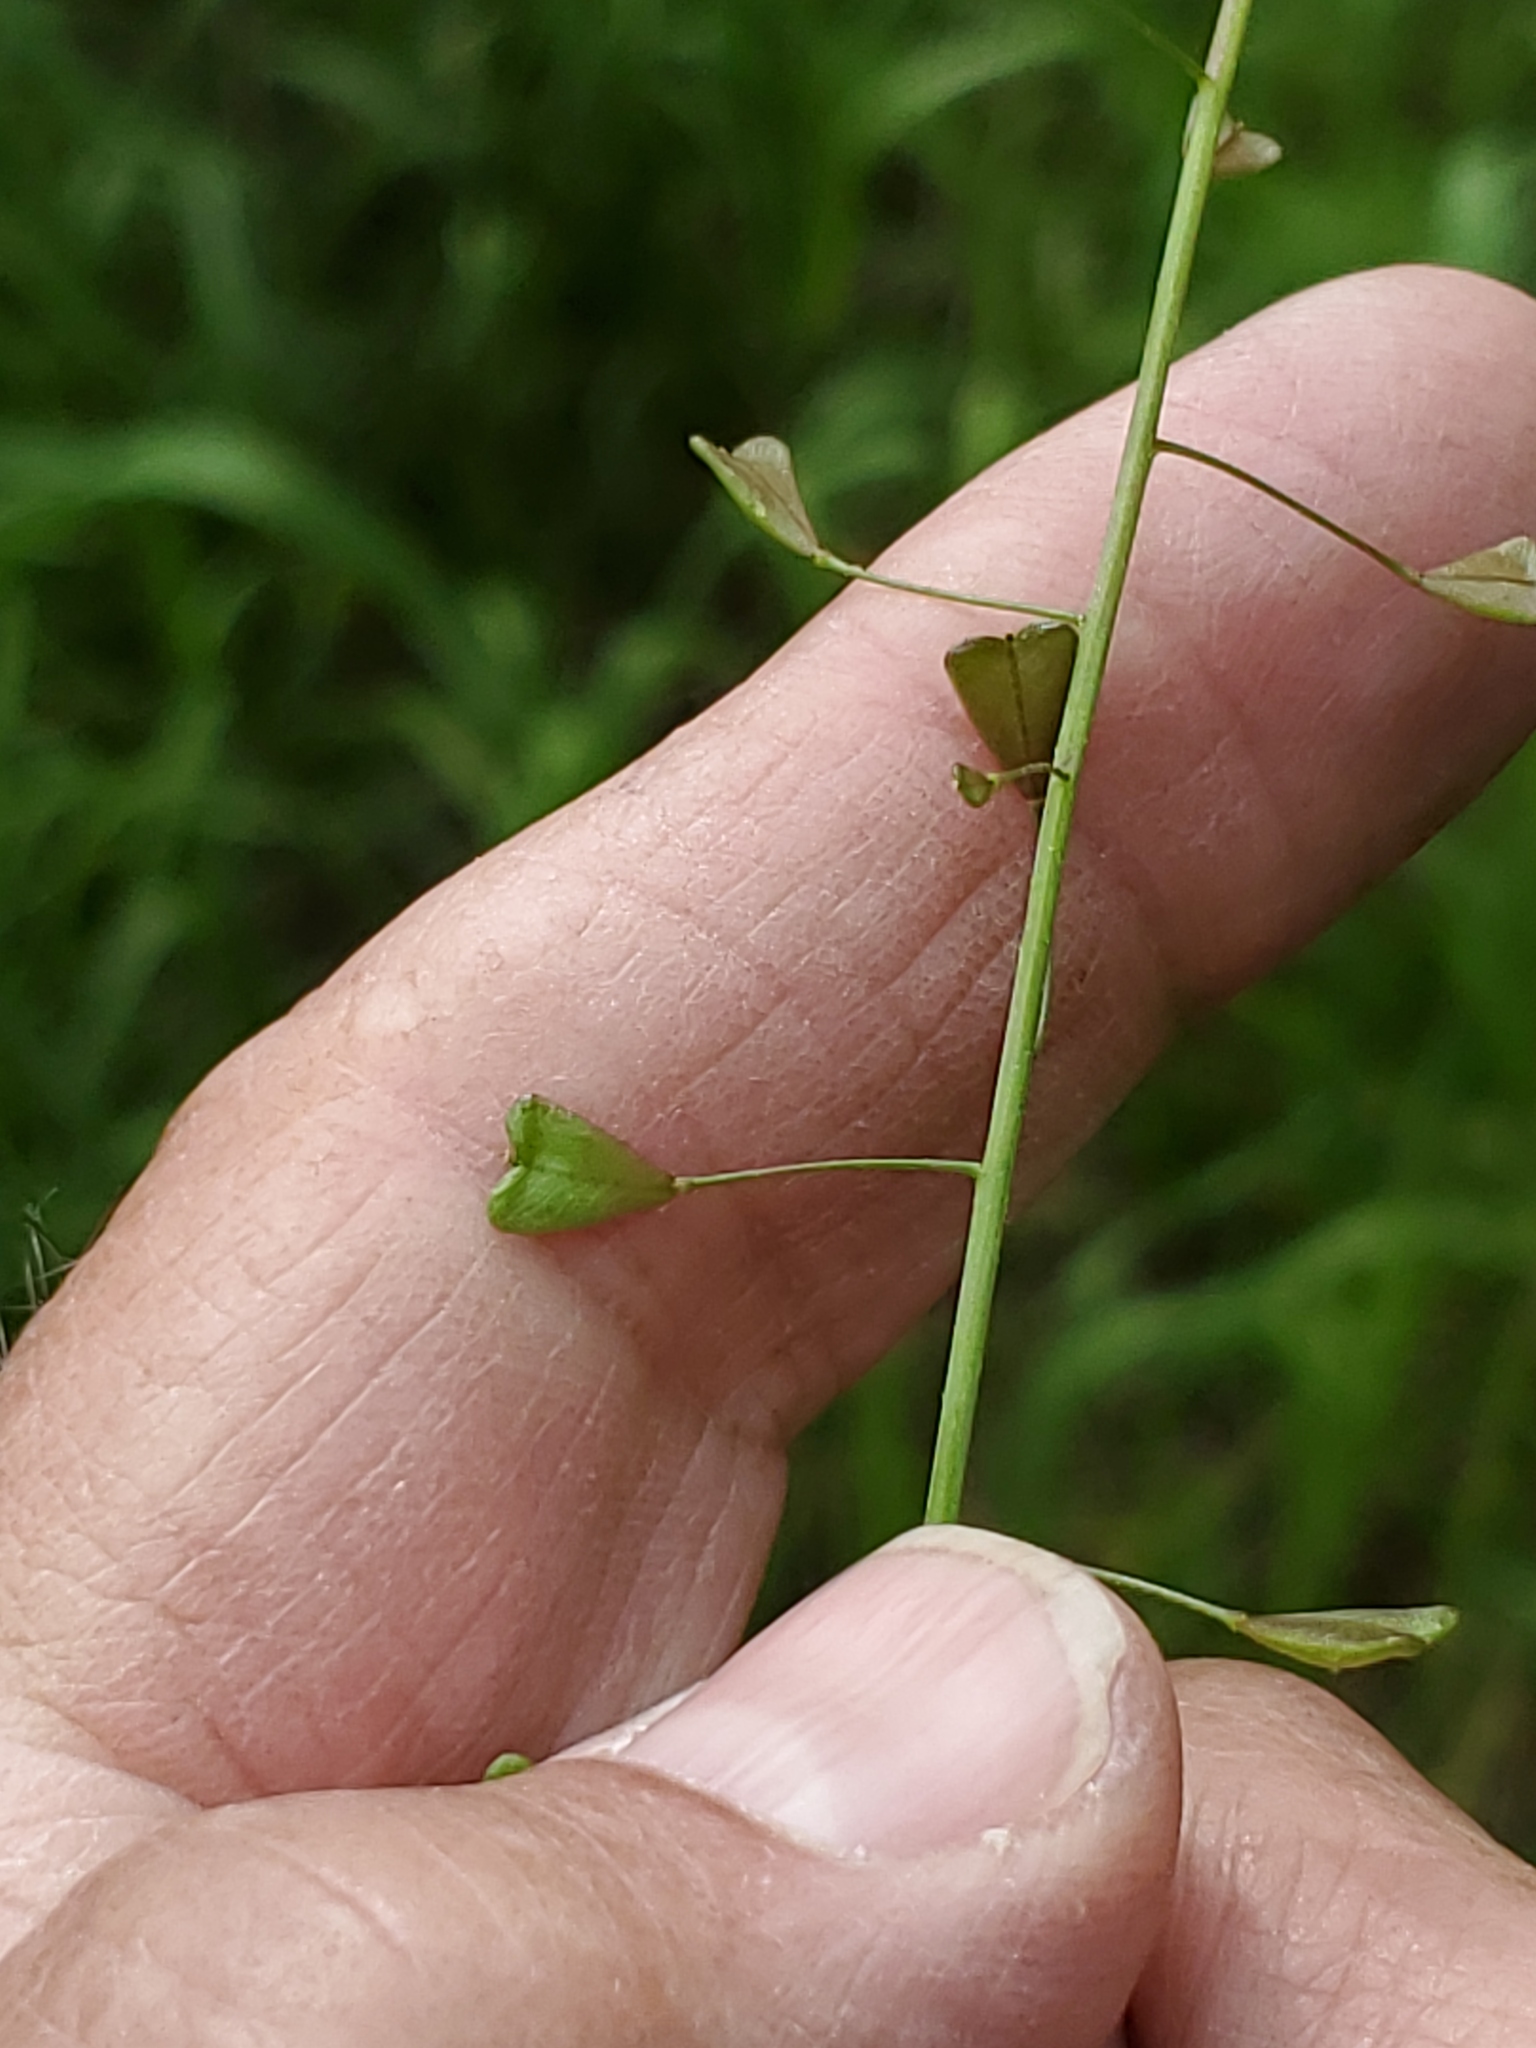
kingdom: Plantae
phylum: Tracheophyta
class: Magnoliopsida
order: Brassicales
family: Brassicaceae
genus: Capsella
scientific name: Capsella bursa-pastoris
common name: Shepherd's purse
